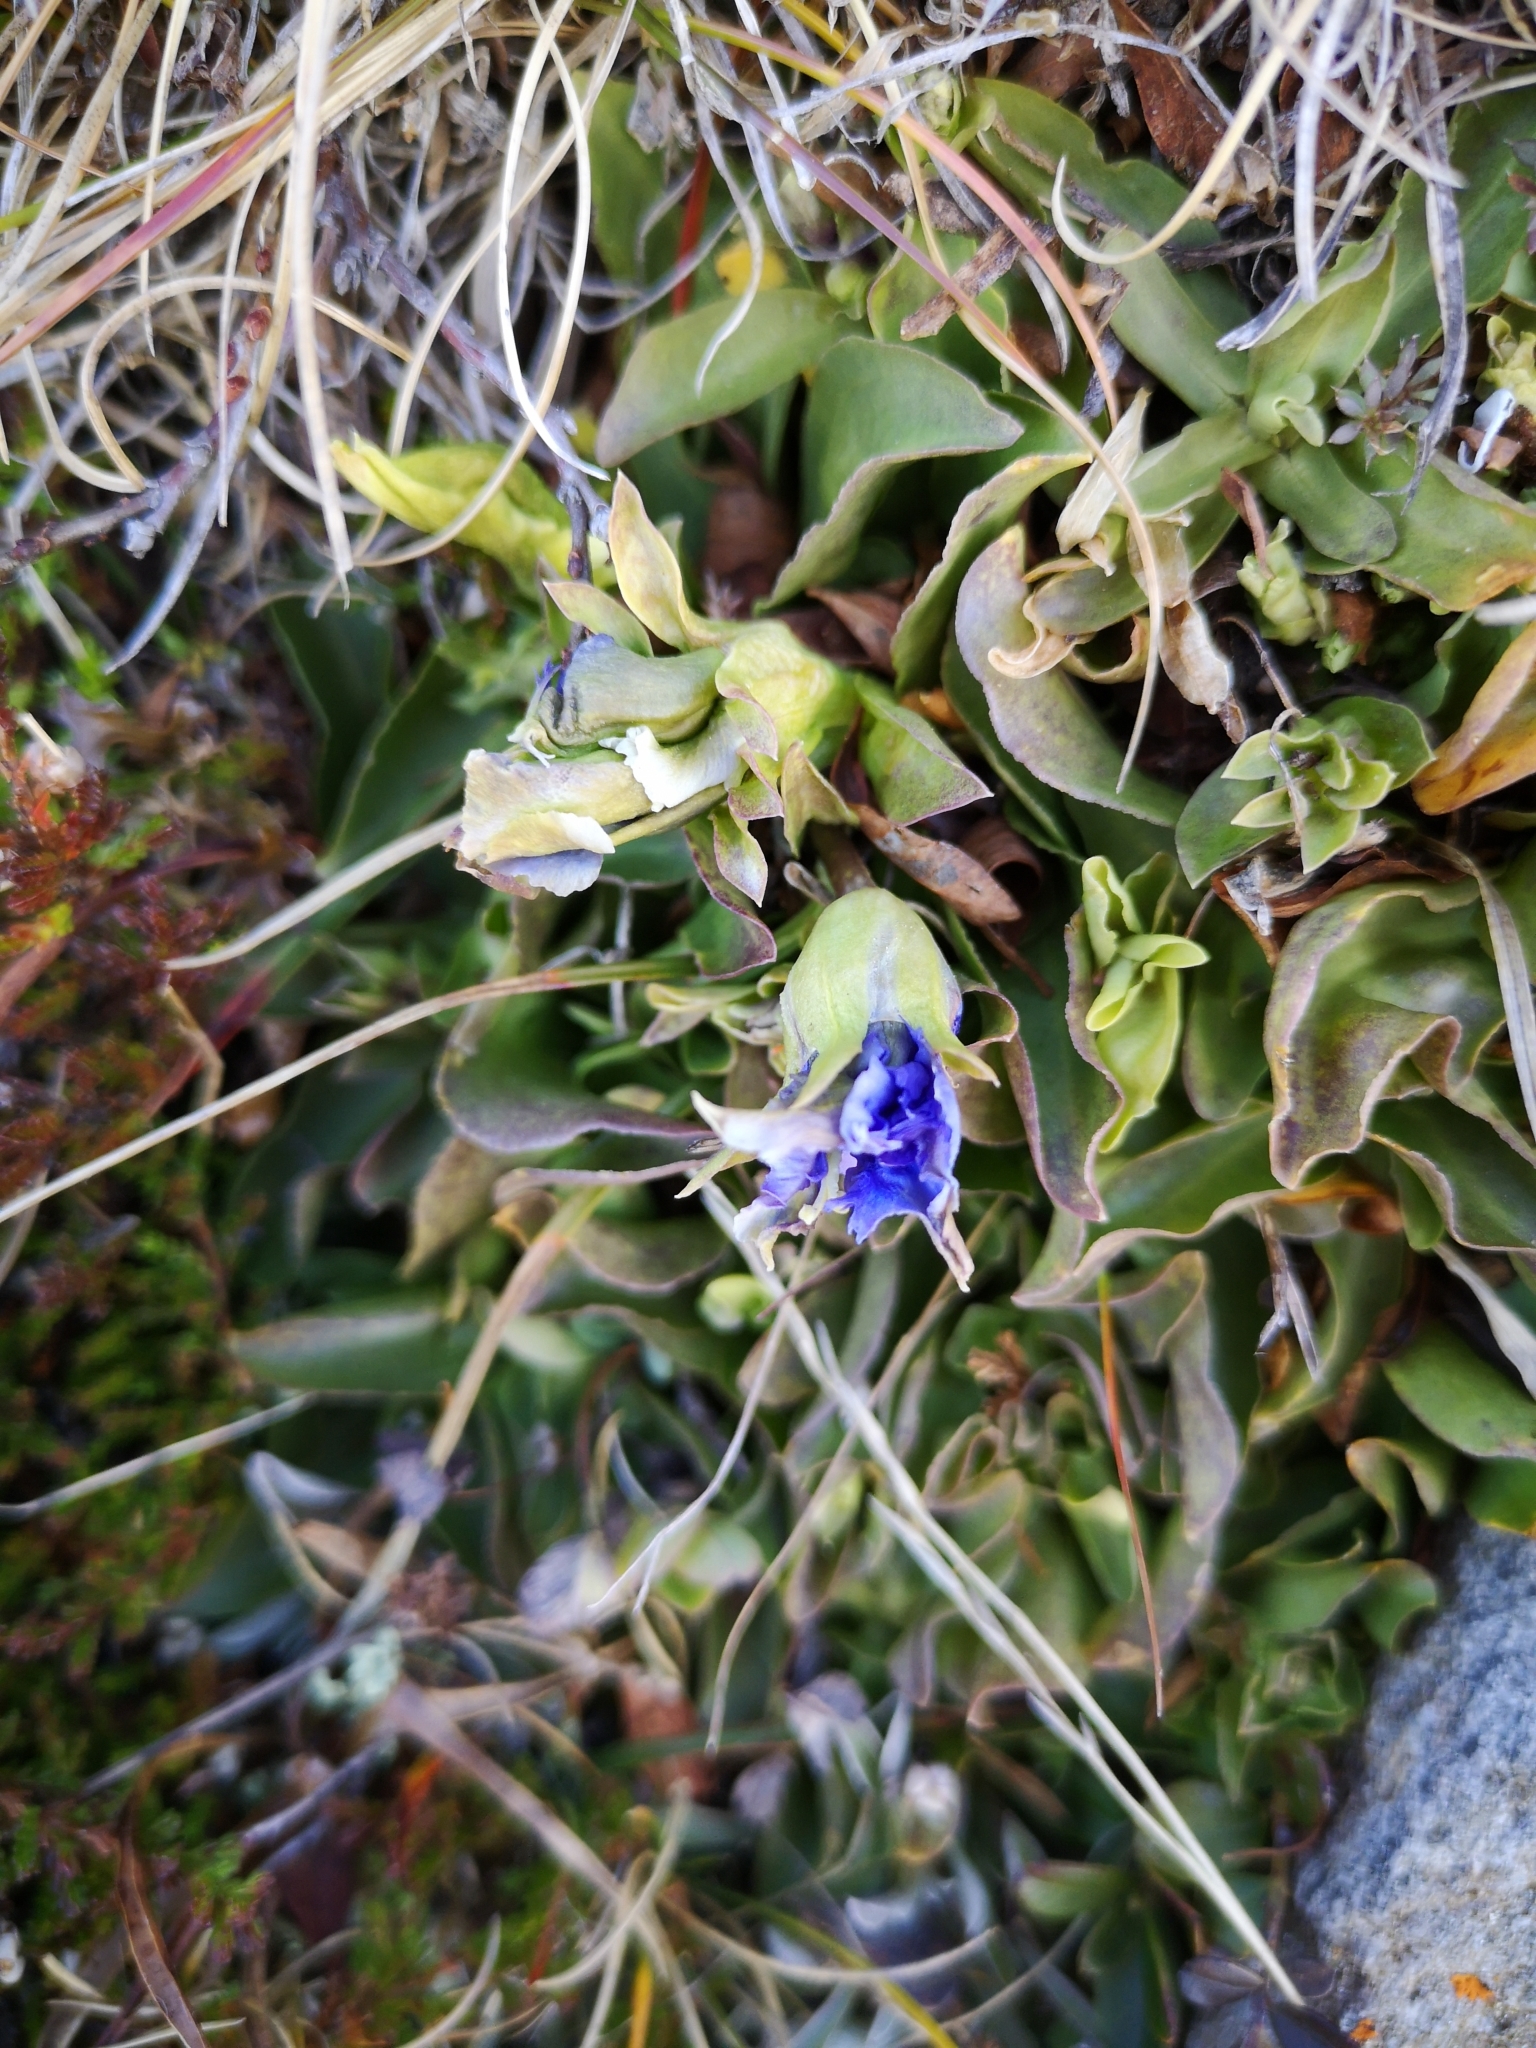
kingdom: Plantae
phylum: Tracheophyta
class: Magnoliopsida
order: Gentianales
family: Gentianaceae
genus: Gentiana
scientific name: Gentiana acaulis
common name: Trumpet gentian
